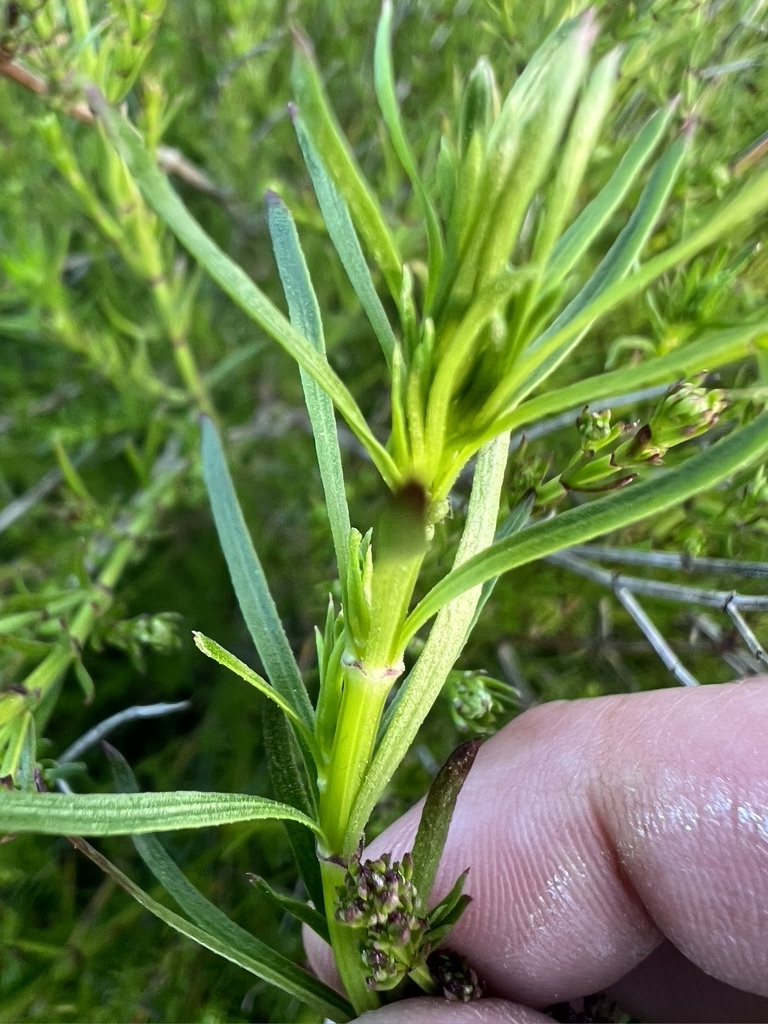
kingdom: Plantae
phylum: Tracheophyta
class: Magnoliopsida
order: Gentianales
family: Rubiaceae
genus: Galium
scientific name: Galium angustifolium
